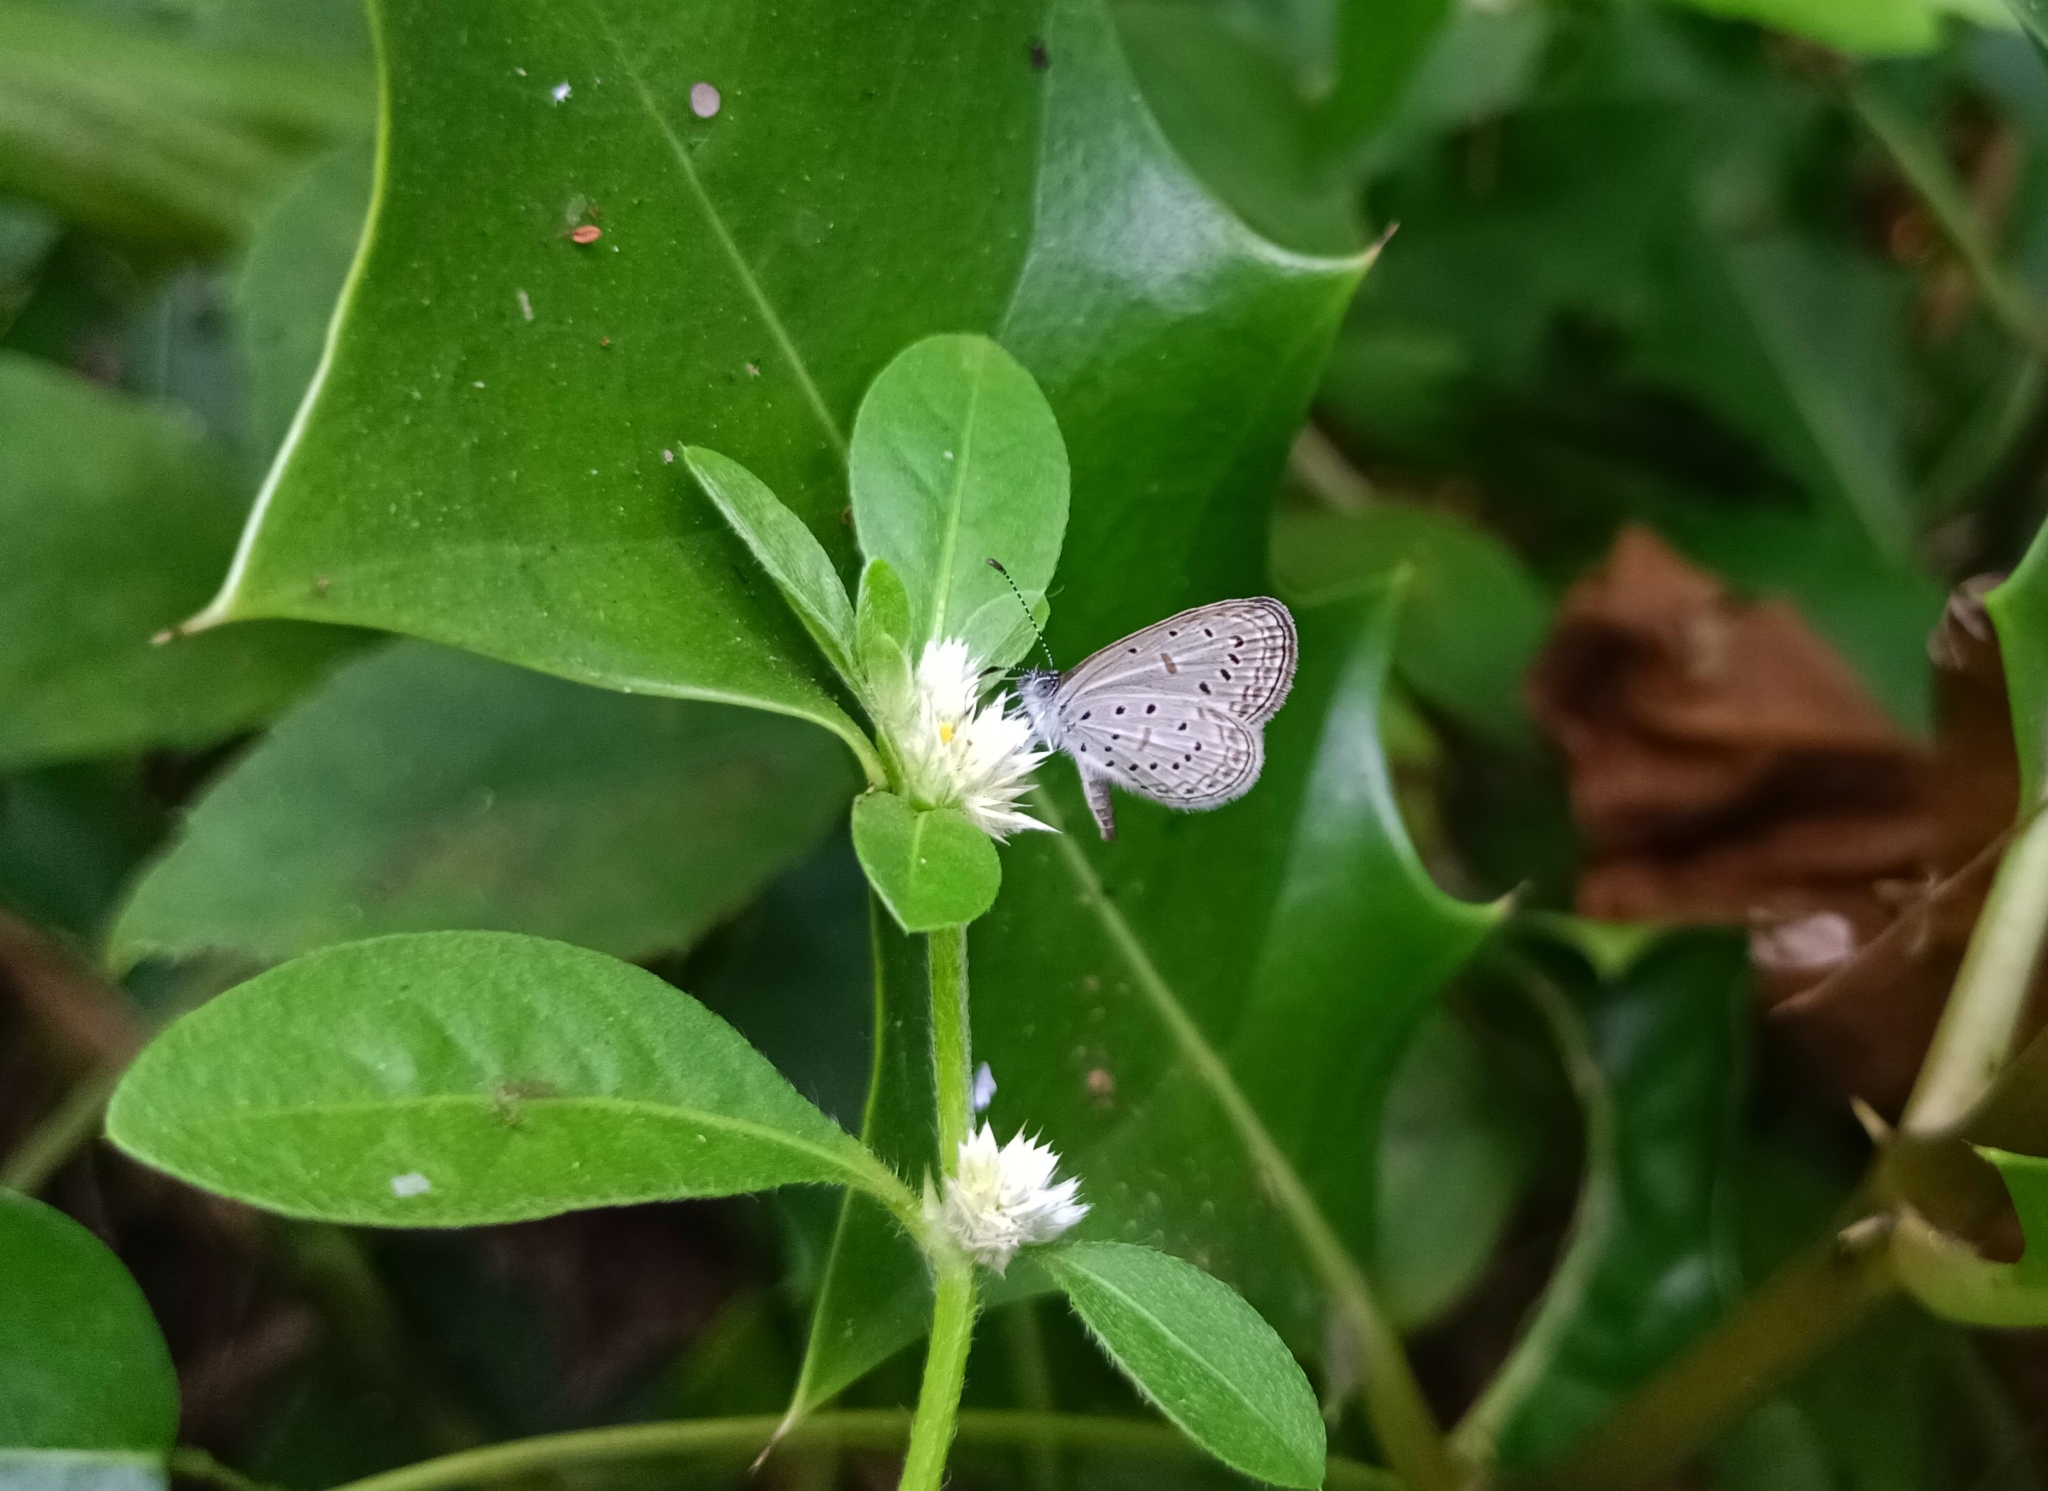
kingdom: Animalia
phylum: Arthropoda
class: Insecta
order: Lepidoptera
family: Lycaenidae
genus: Zizula
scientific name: Zizula hylax
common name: Gaika blue
